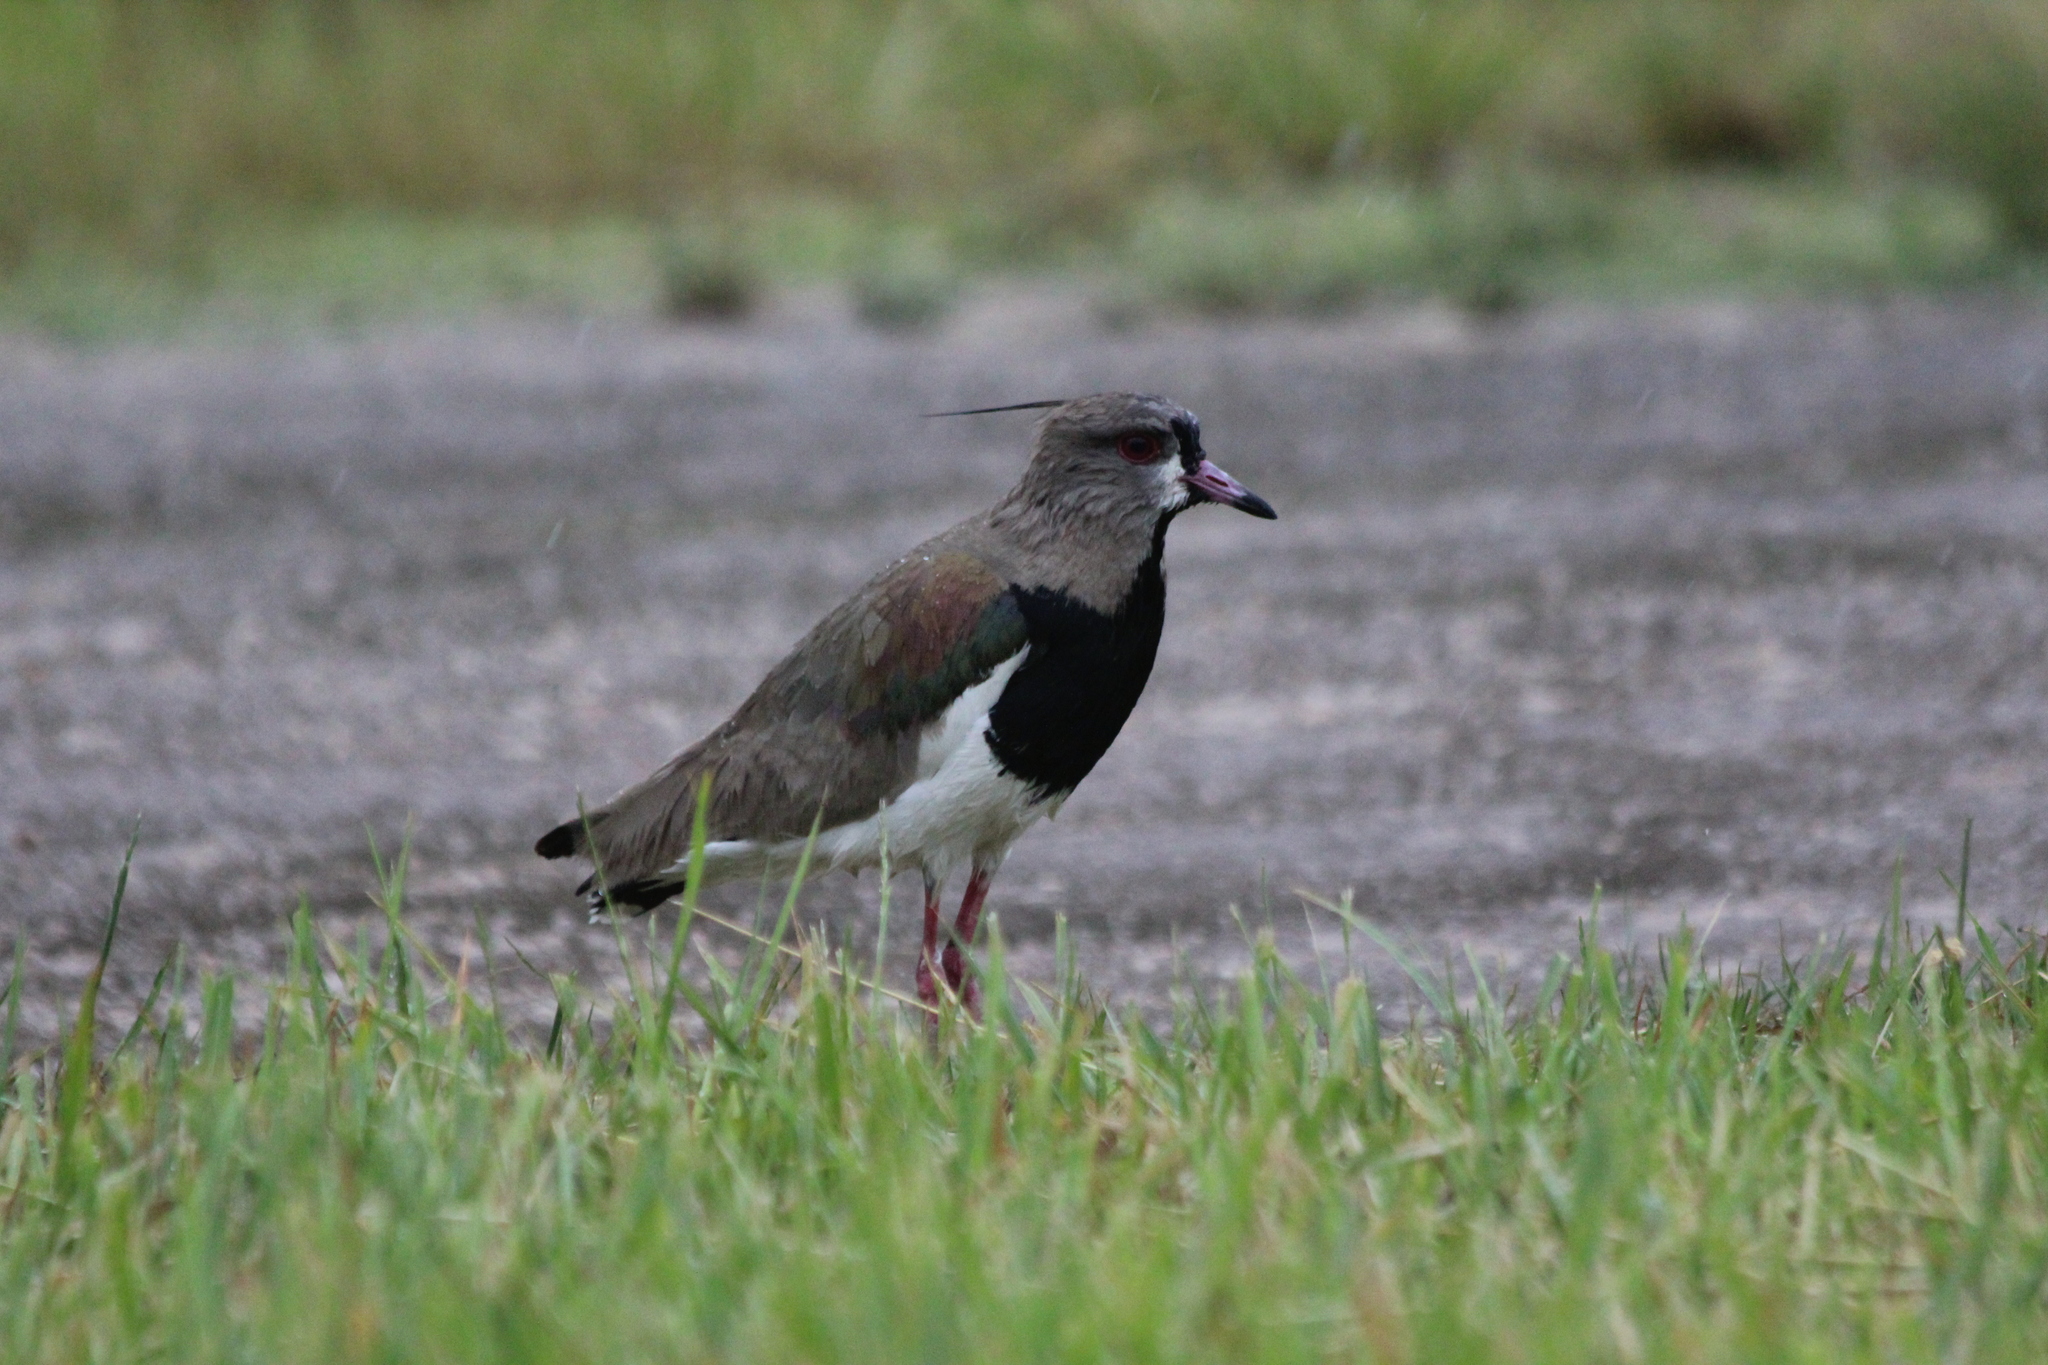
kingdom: Animalia
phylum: Chordata
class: Aves
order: Charadriiformes
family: Charadriidae
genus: Vanellus
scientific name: Vanellus chilensis
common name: Southern lapwing
